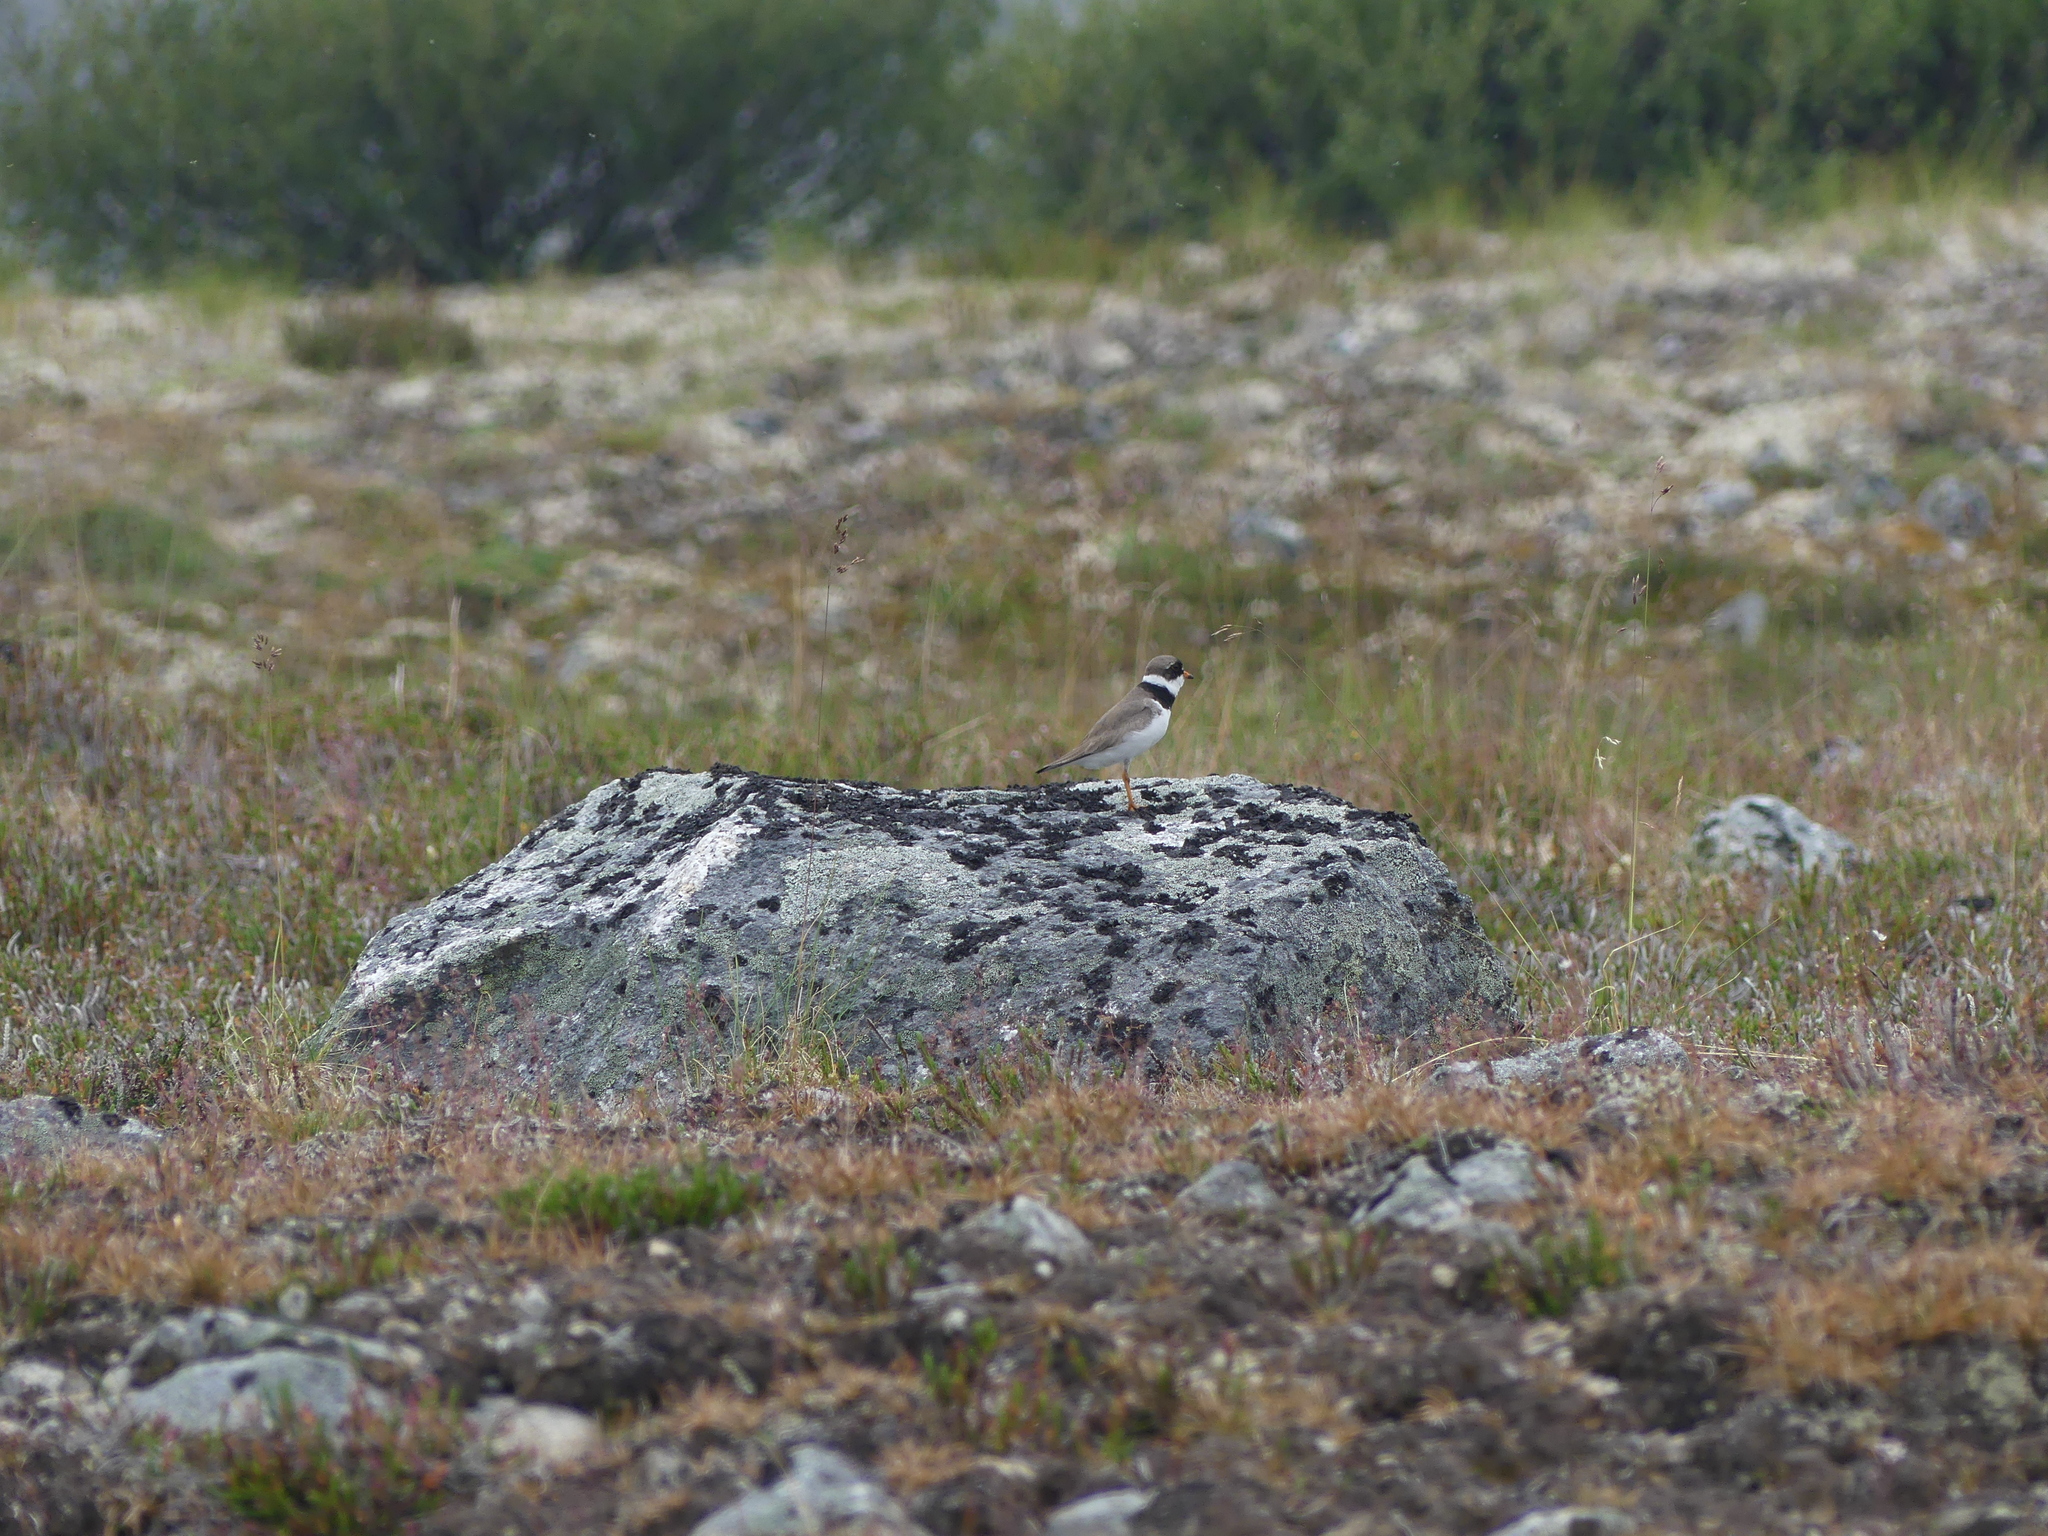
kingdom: Animalia
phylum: Chordata
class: Aves
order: Charadriiformes
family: Charadriidae
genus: Charadrius
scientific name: Charadrius semipalmatus
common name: Semipalmated plover
